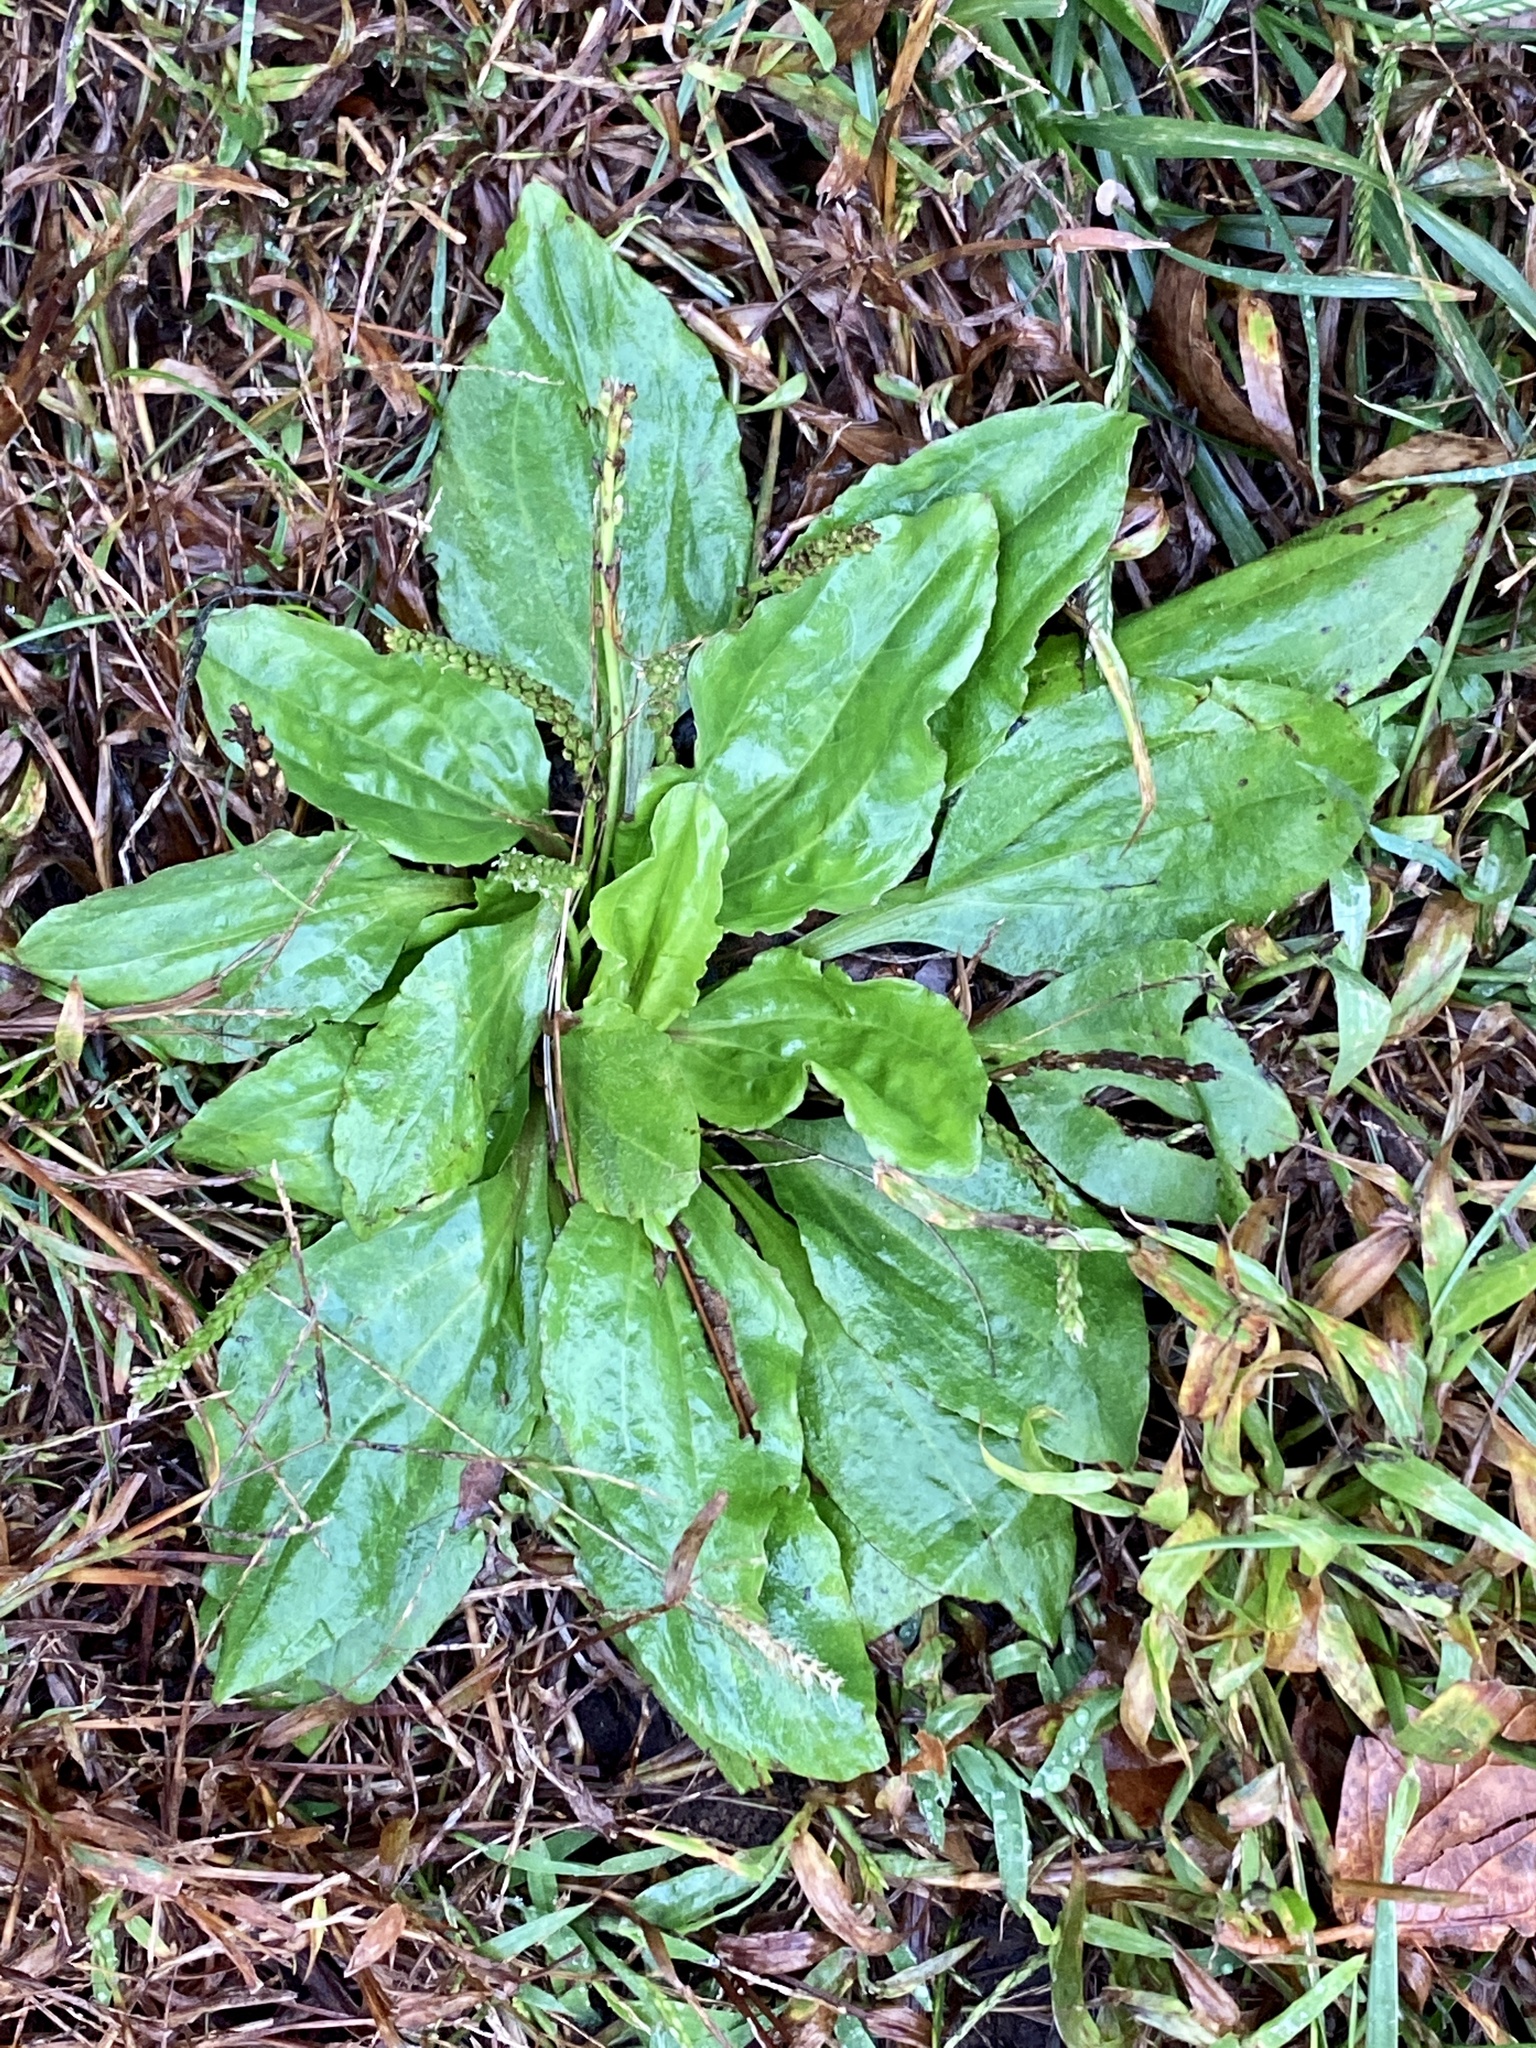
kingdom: Plantae
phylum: Tracheophyta
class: Magnoliopsida
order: Lamiales
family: Plantaginaceae
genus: Plantago
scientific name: Plantago rugelii
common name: American plantain
